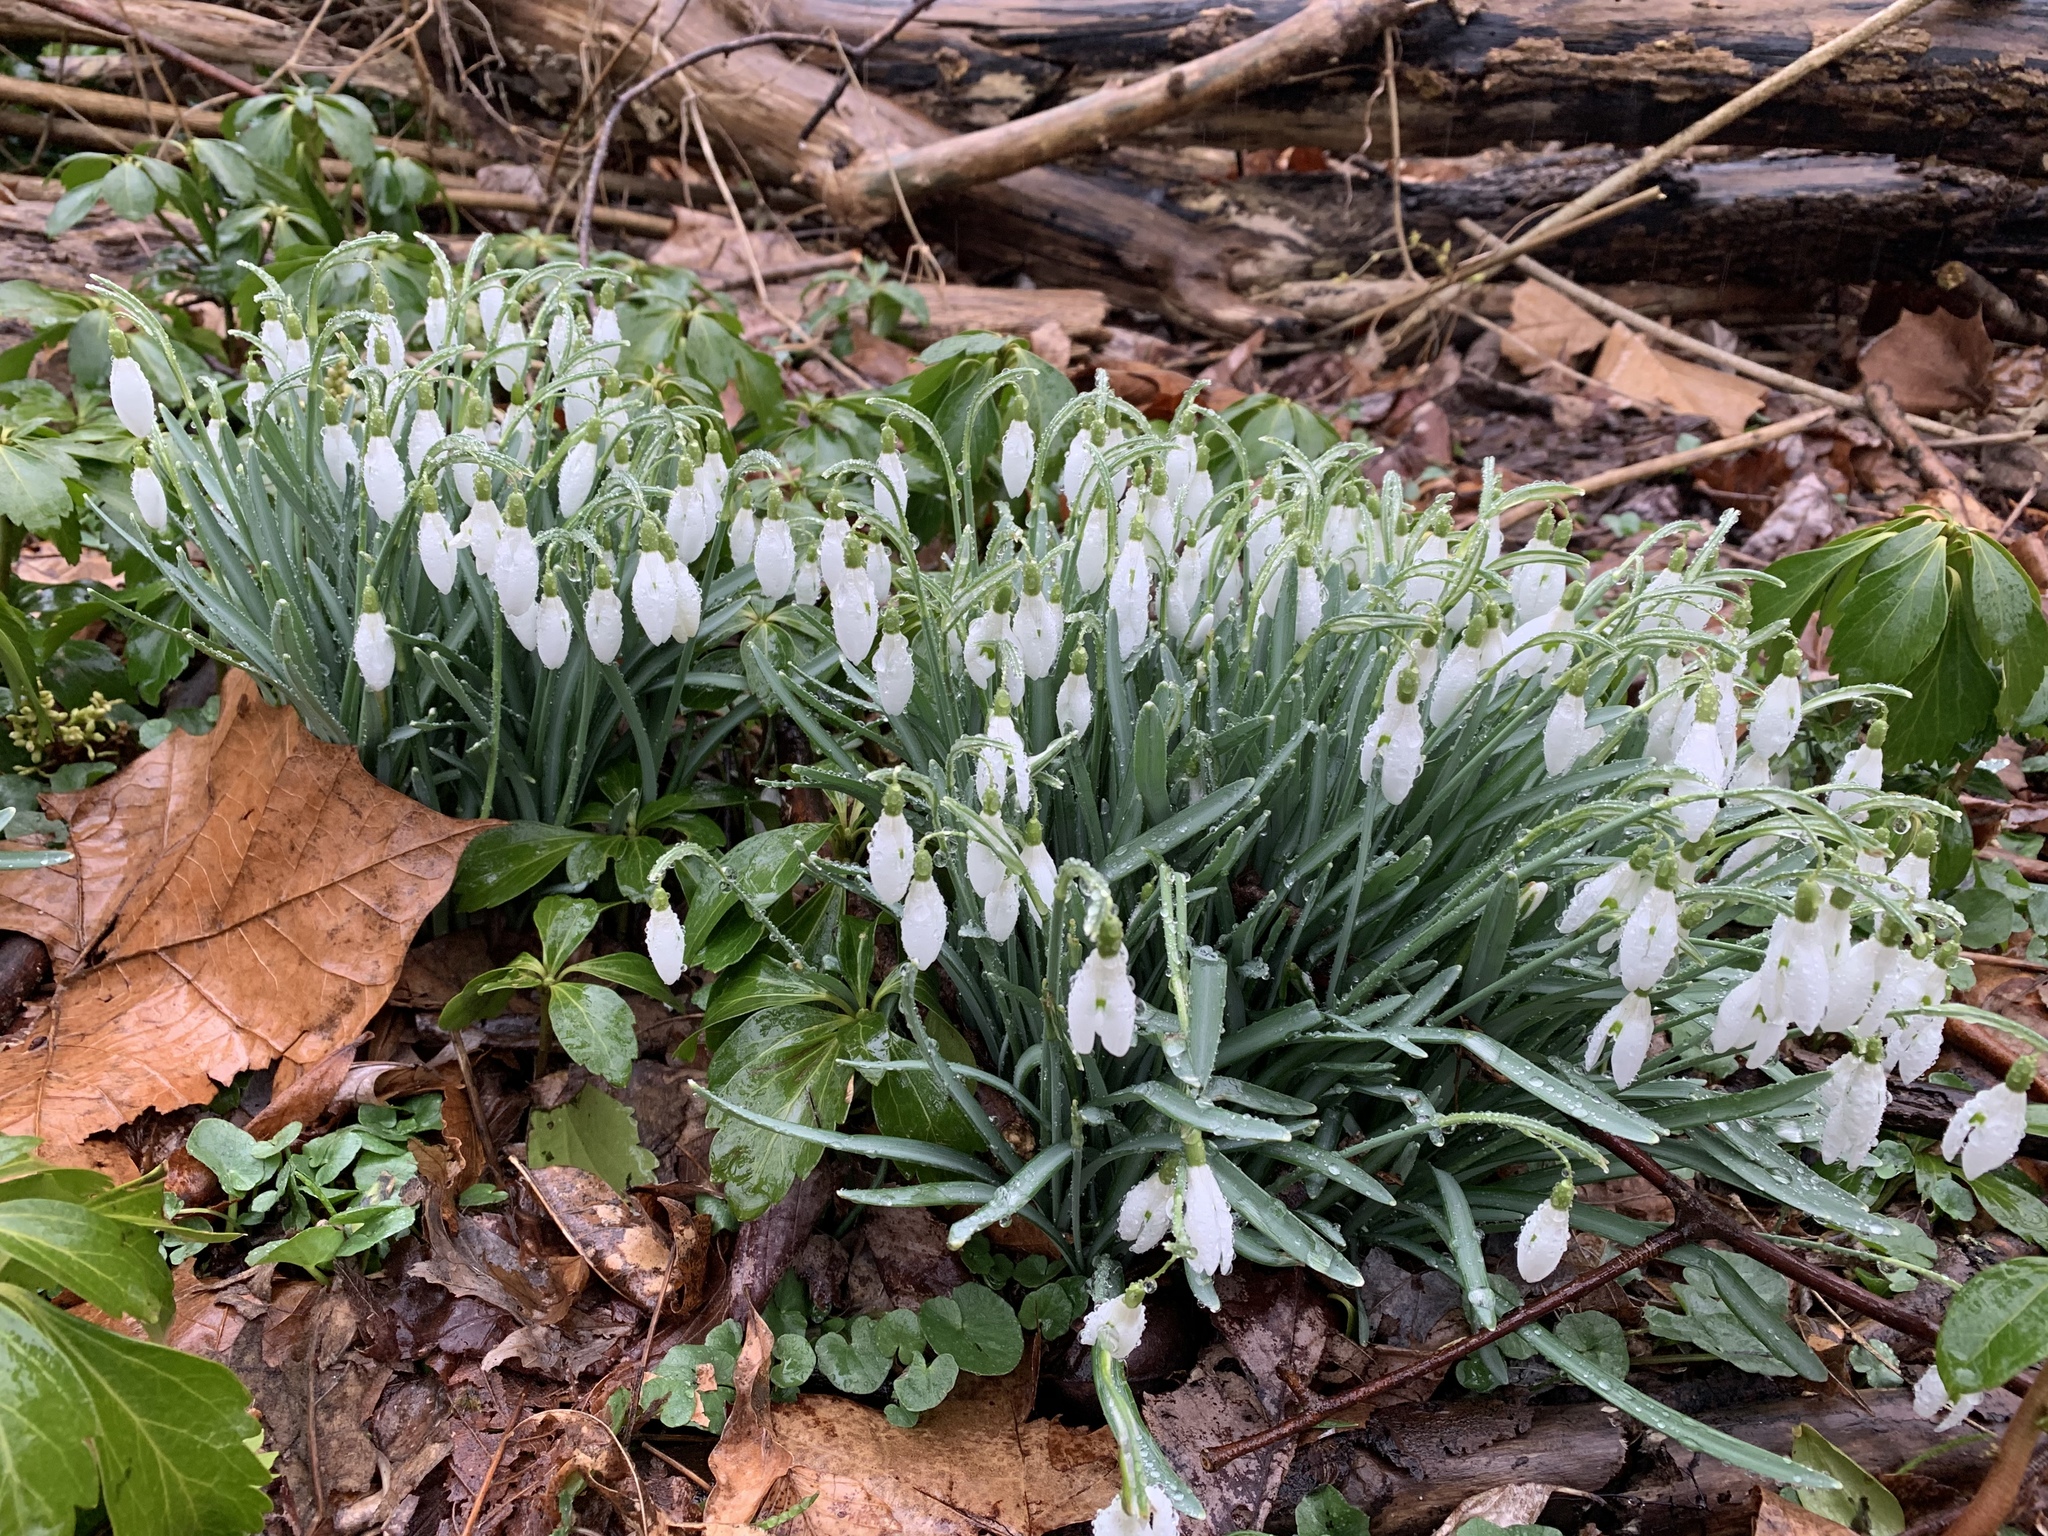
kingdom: Plantae
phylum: Tracheophyta
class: Liliopsida
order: Asparagales
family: Amaryllidaceae
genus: Galanthus
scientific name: Galanthus nivalis
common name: Snowdrop
